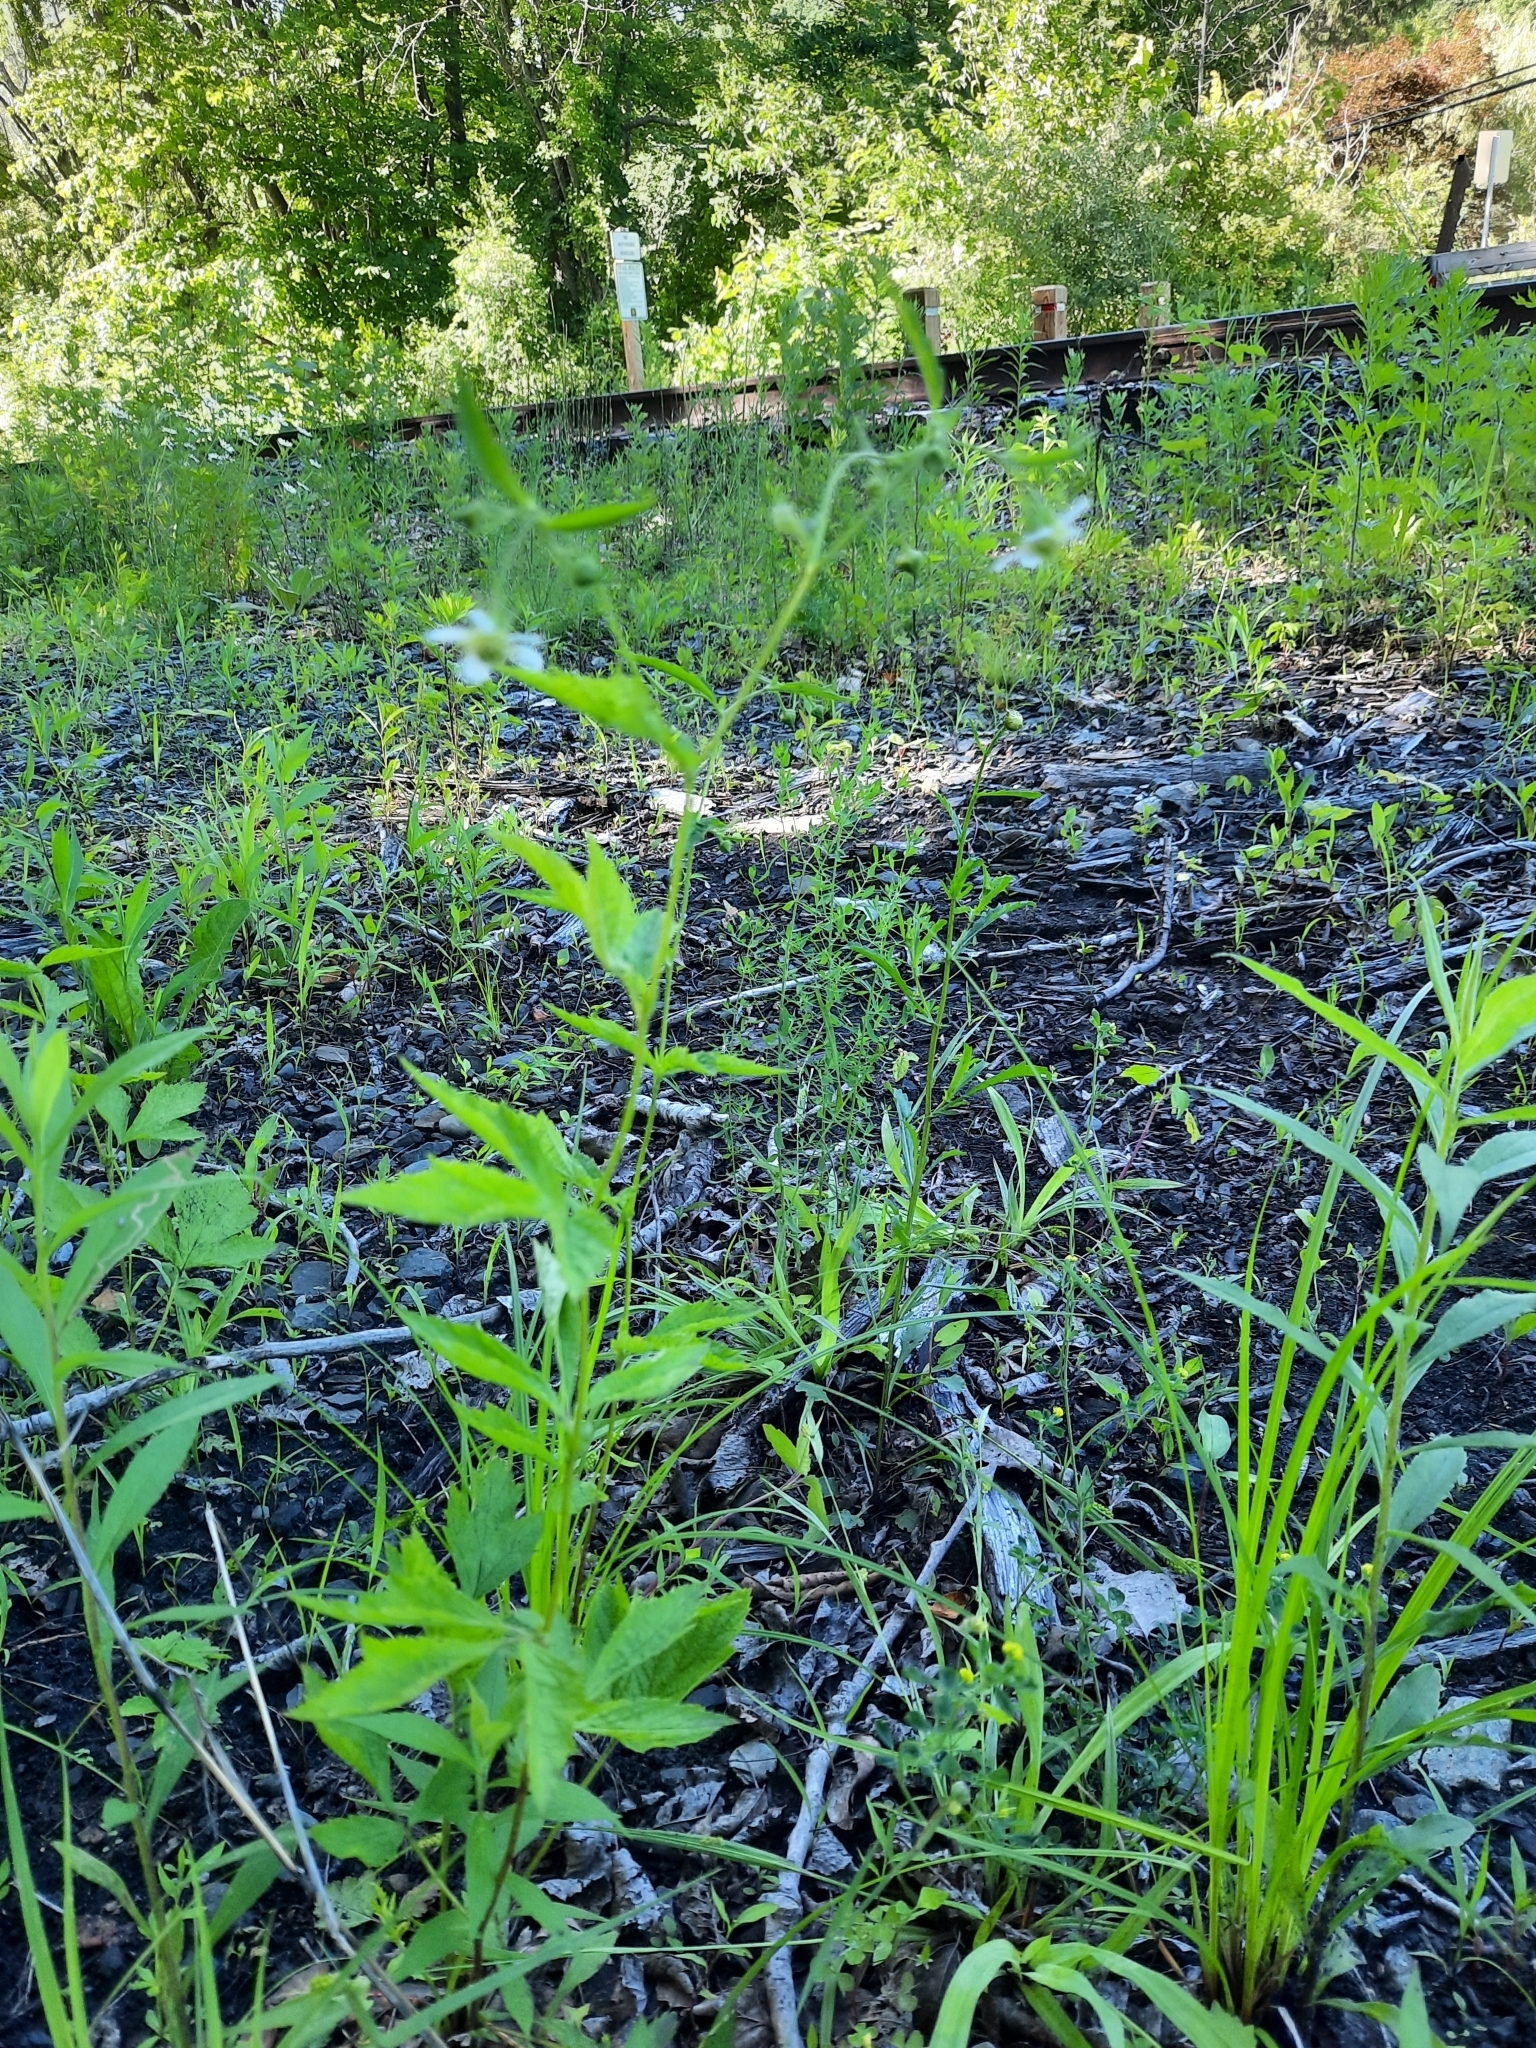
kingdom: Plantae
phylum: Tracheophyta
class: Magnoliopsida
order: Rosales
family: Rosaceae
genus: Geum
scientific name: Geum canadense
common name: White avens
